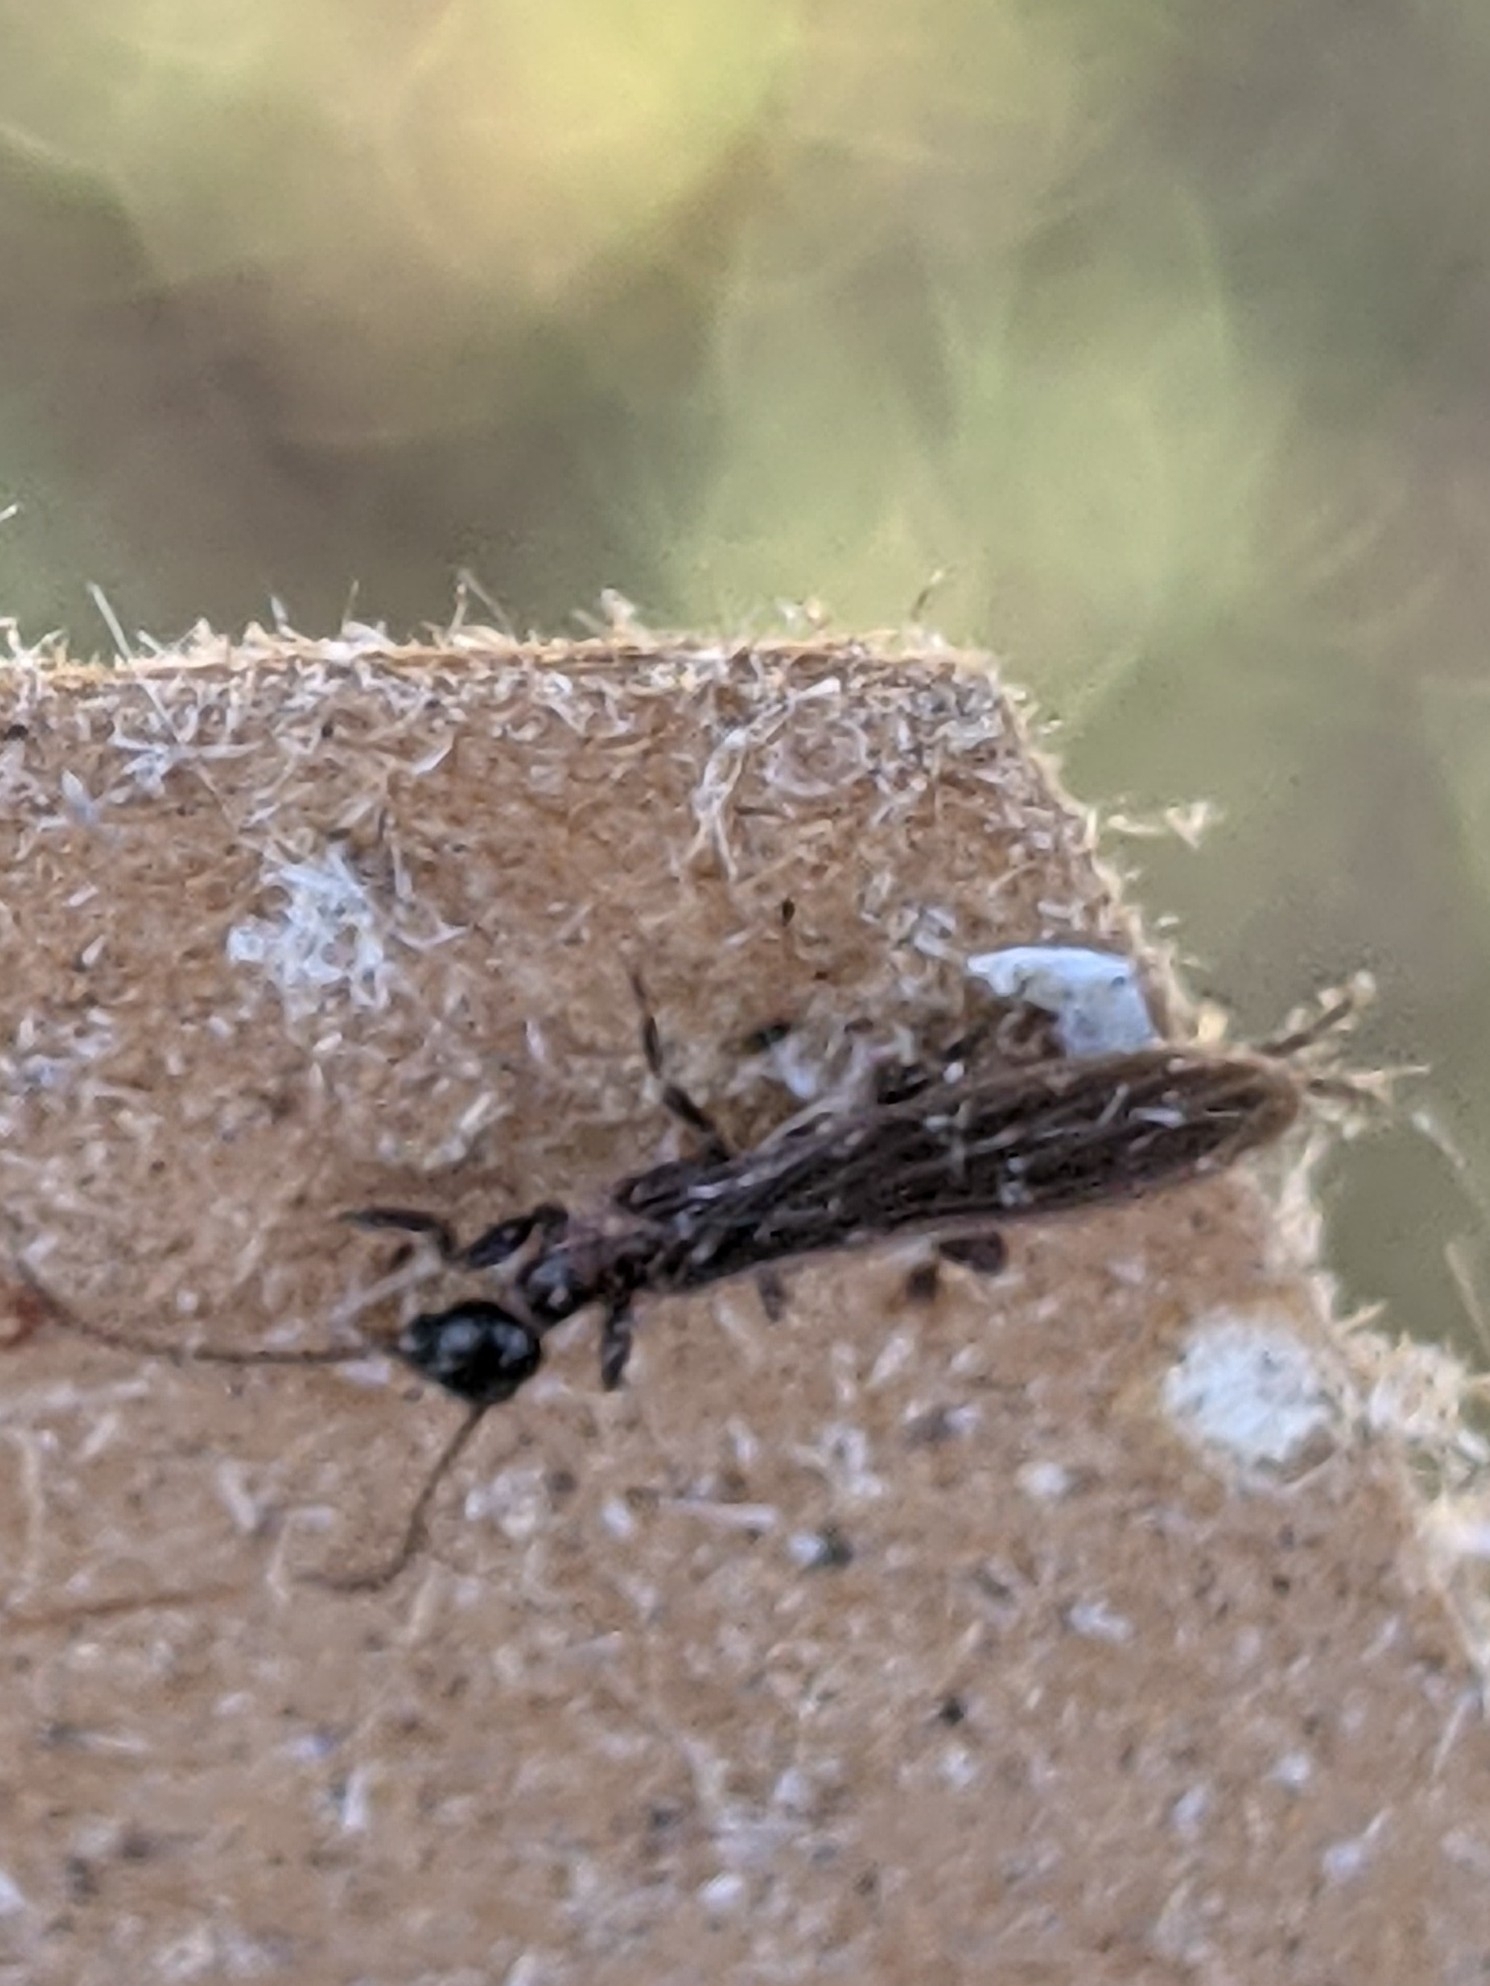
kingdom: Animalia
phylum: Arthropoda
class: Insecta
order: Embioptera
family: Oligotomidae
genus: Oligotoma
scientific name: Oligotoma nigra
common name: Black webspinner
